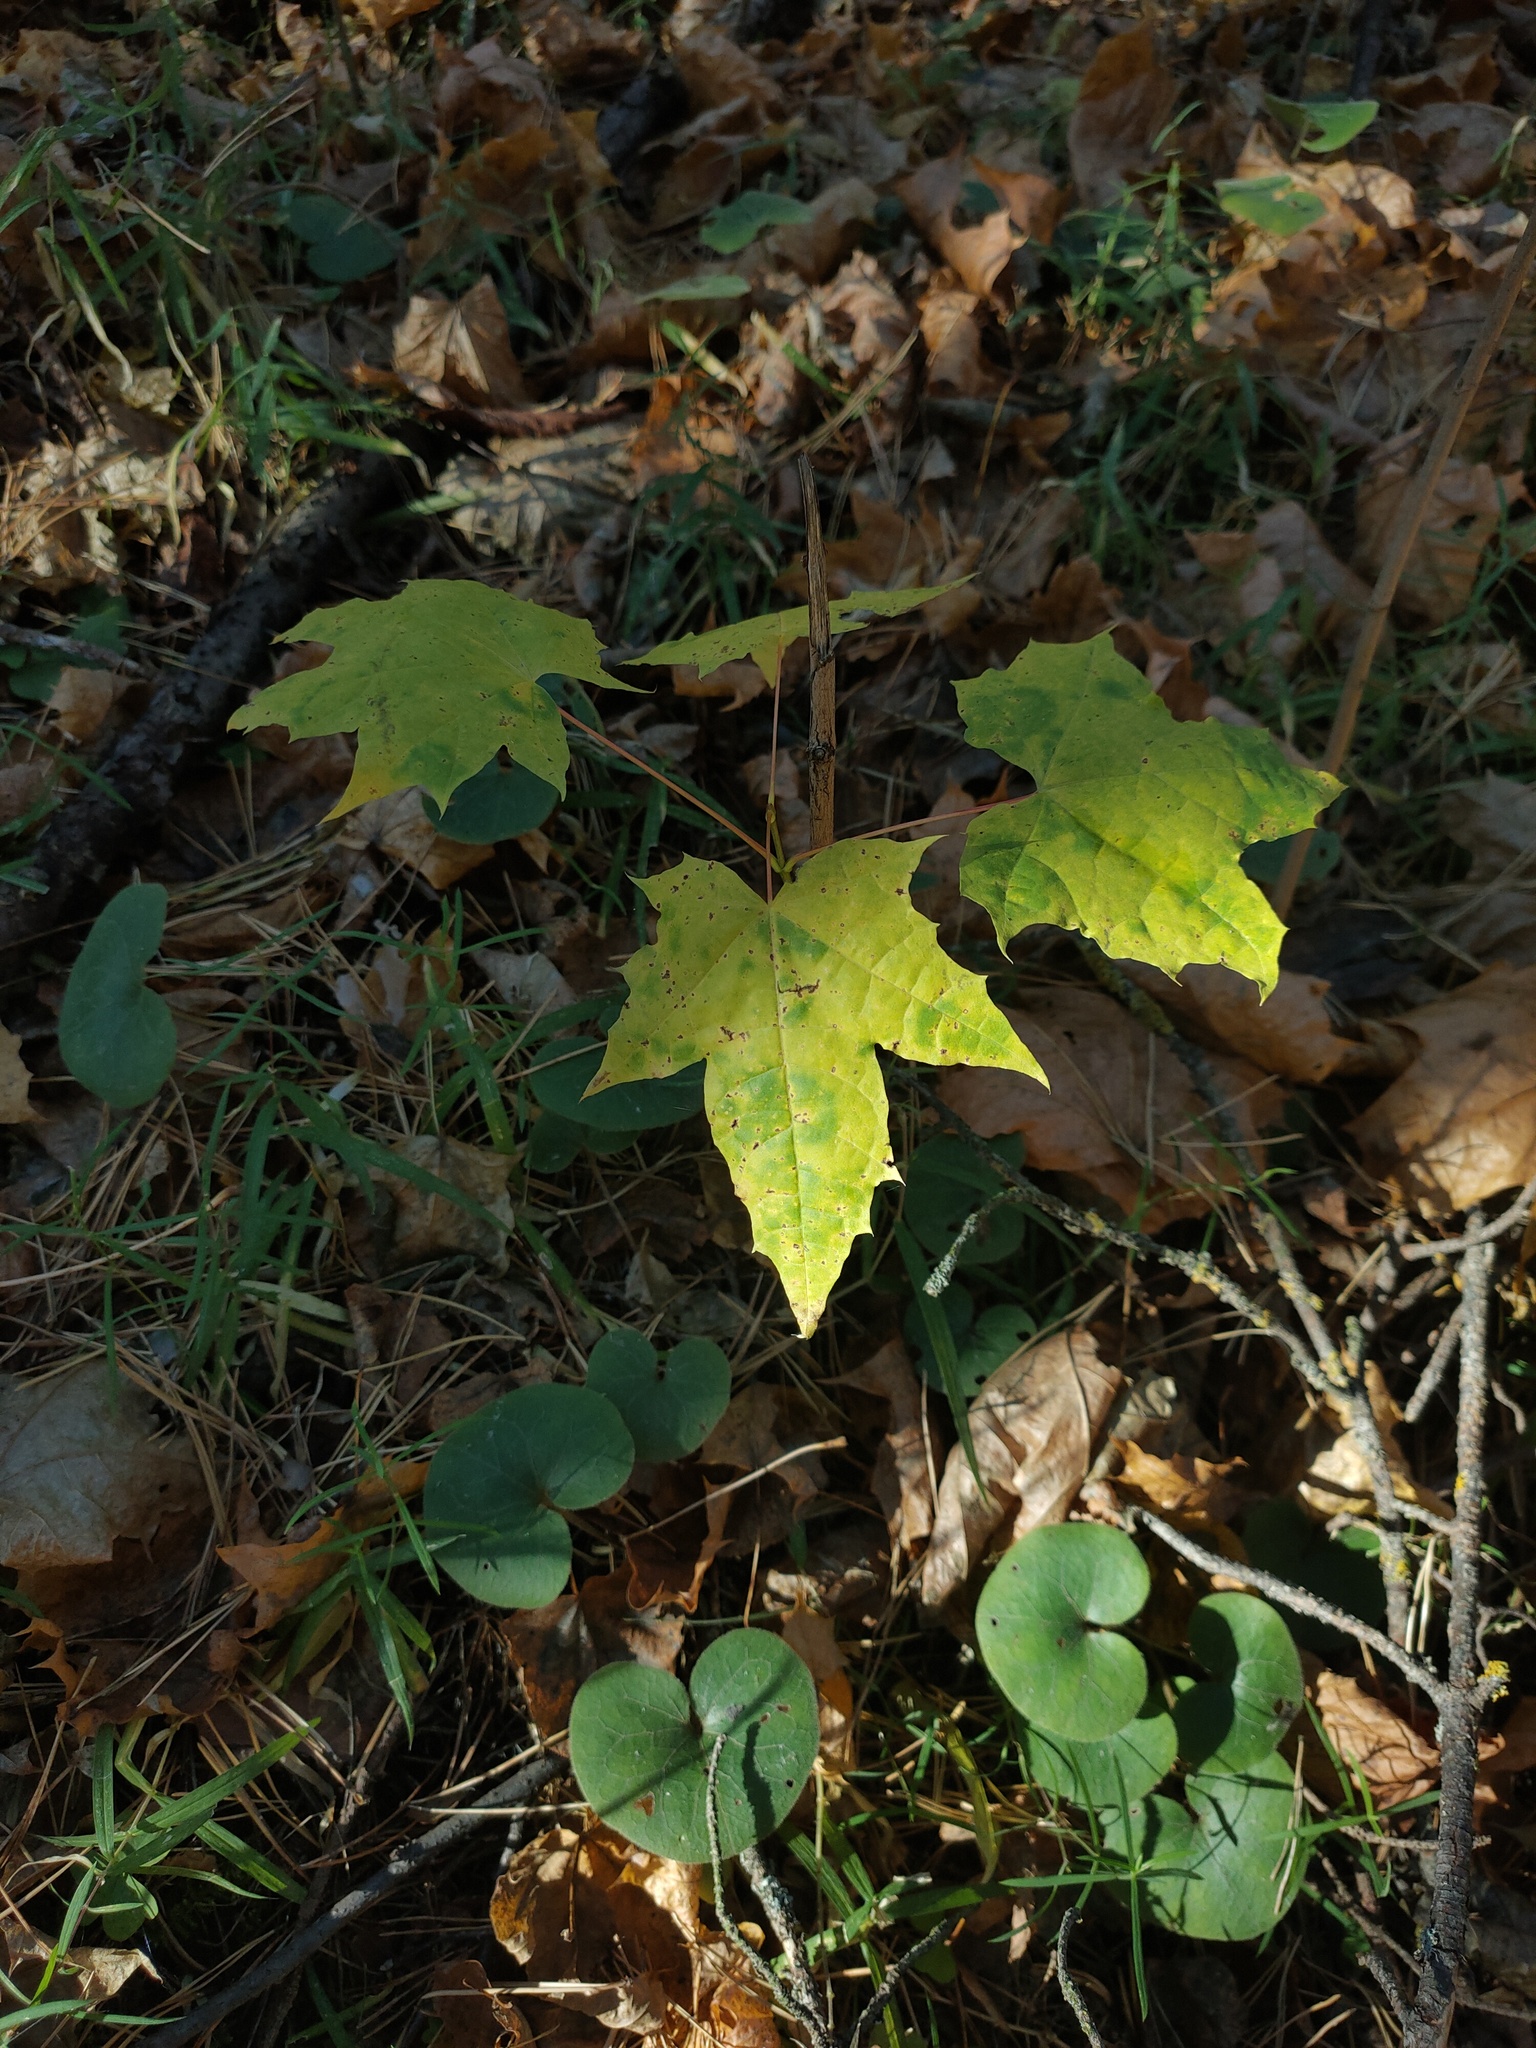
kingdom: Plantae
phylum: Tracheophyta
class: Magnoliopsida
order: Sapindales
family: Sapindaceae
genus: Acer
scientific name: Acer platanoides
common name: Norway maple
